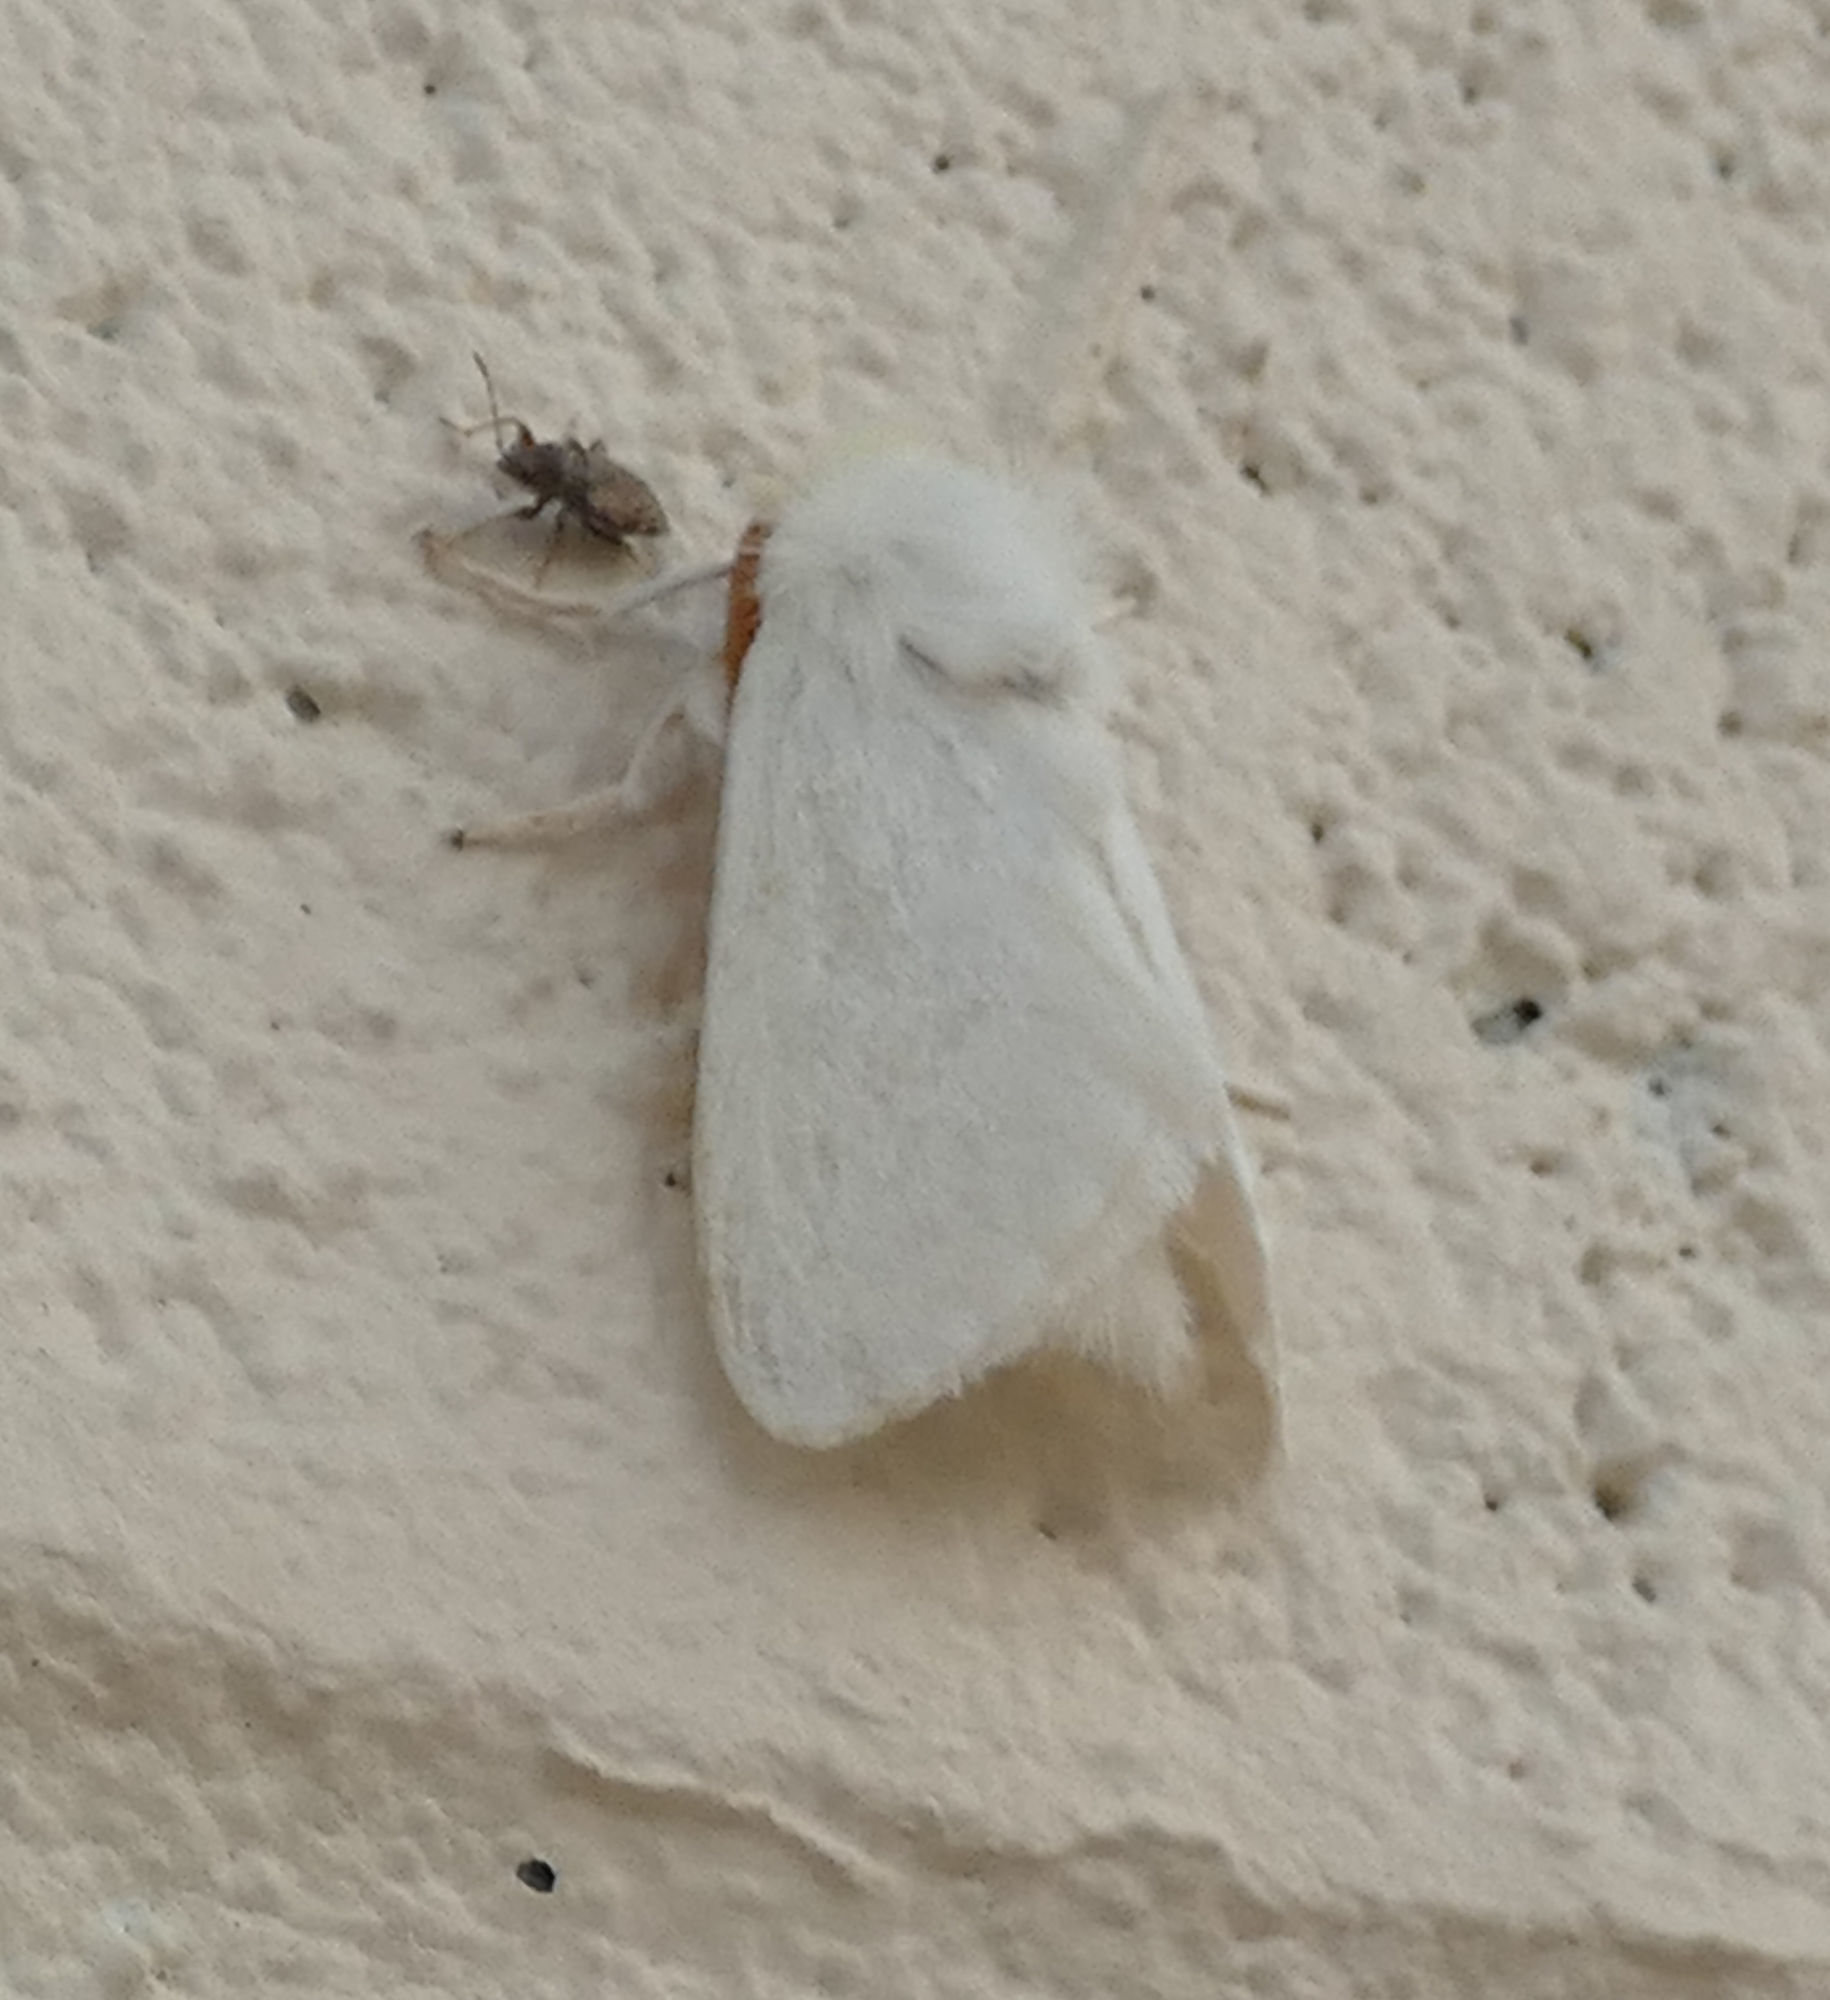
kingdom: Animalia
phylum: Arthropoda
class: Insecta
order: Lepidoptera
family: Megalopygidae
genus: Norape
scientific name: Norape cretata
